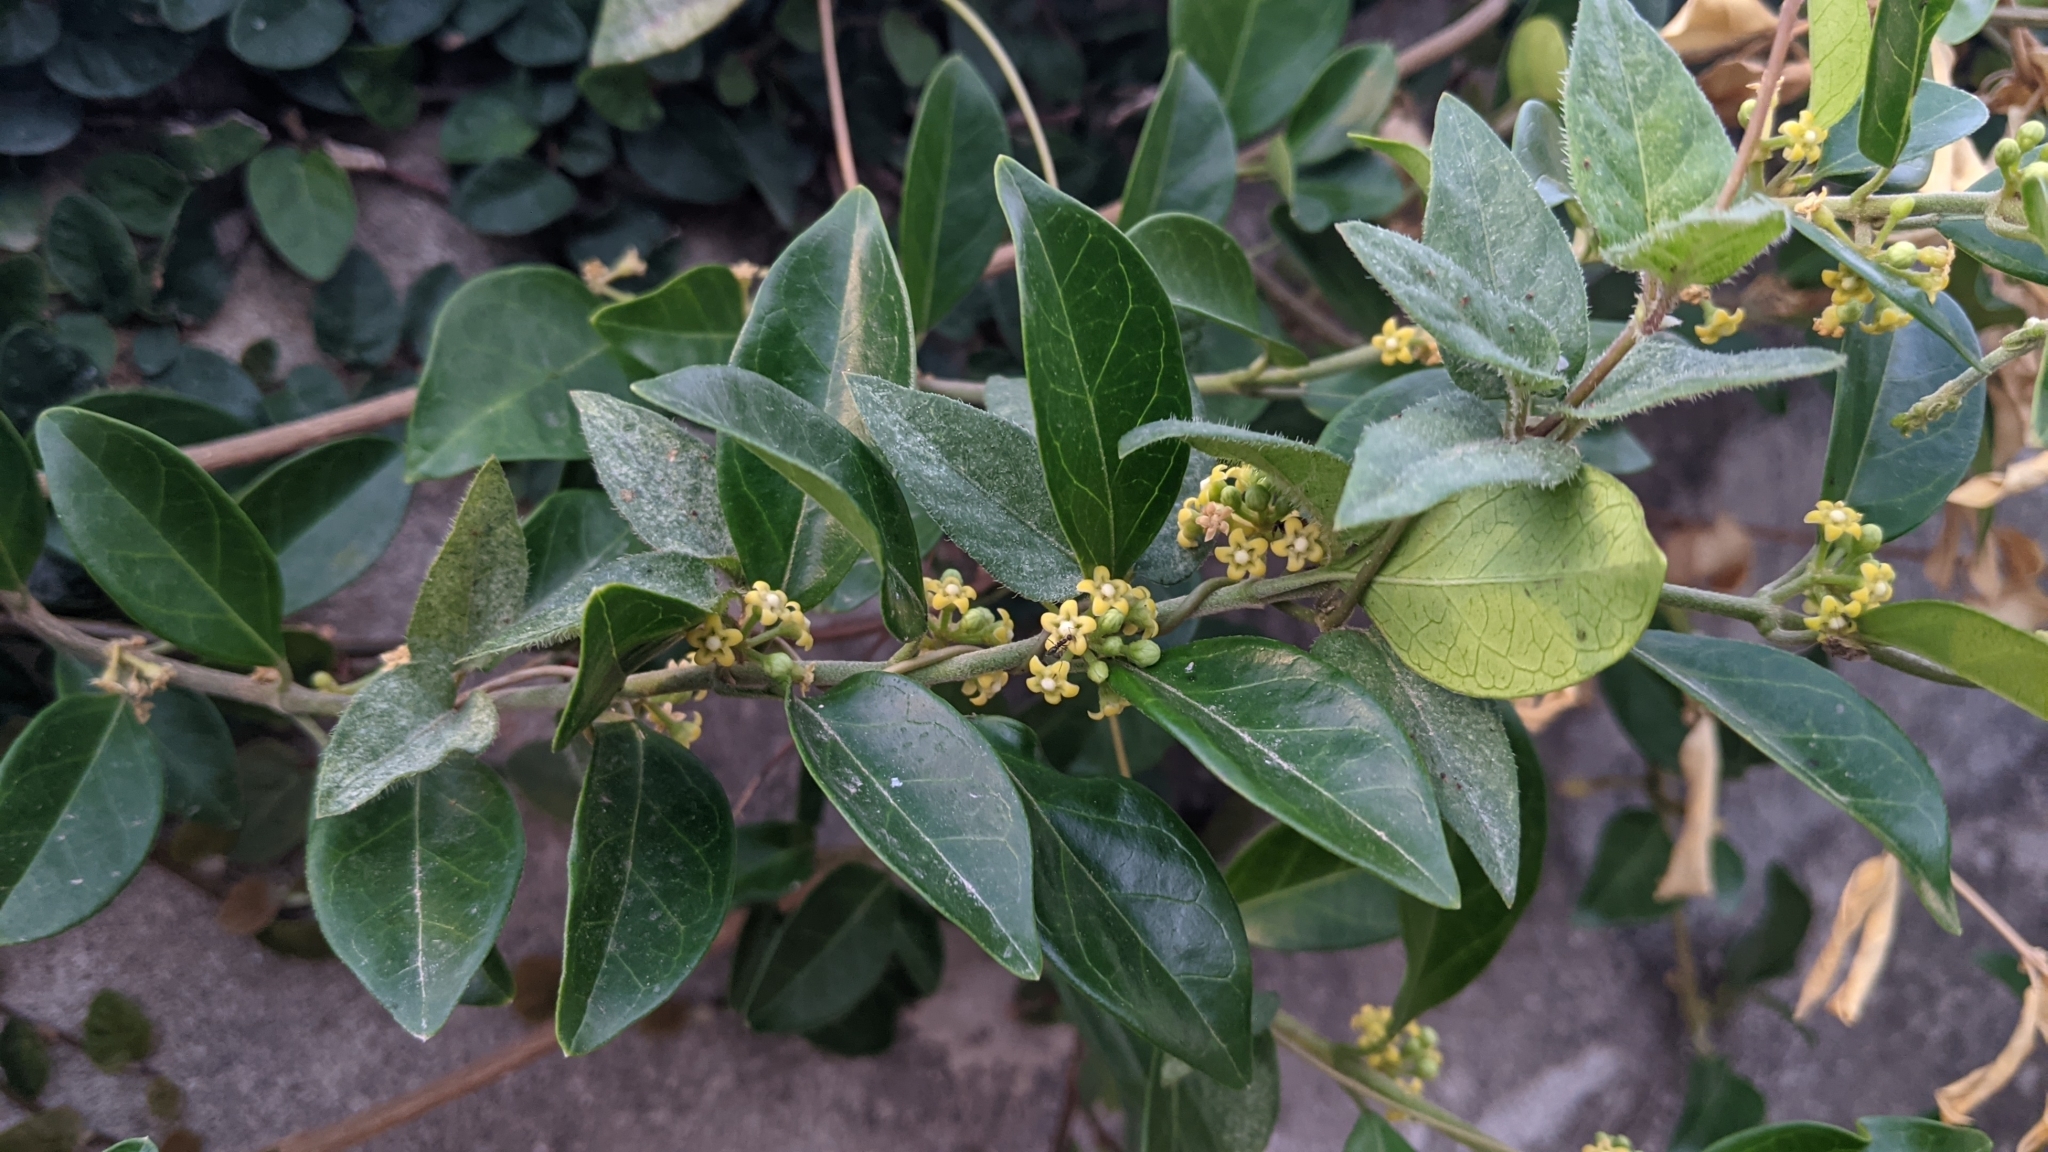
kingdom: Plantae
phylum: Tracheophyta
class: Magnoliopsida
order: Gentianales
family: Apocynaceae
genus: Gymnema
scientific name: Gymnema sylvestre
